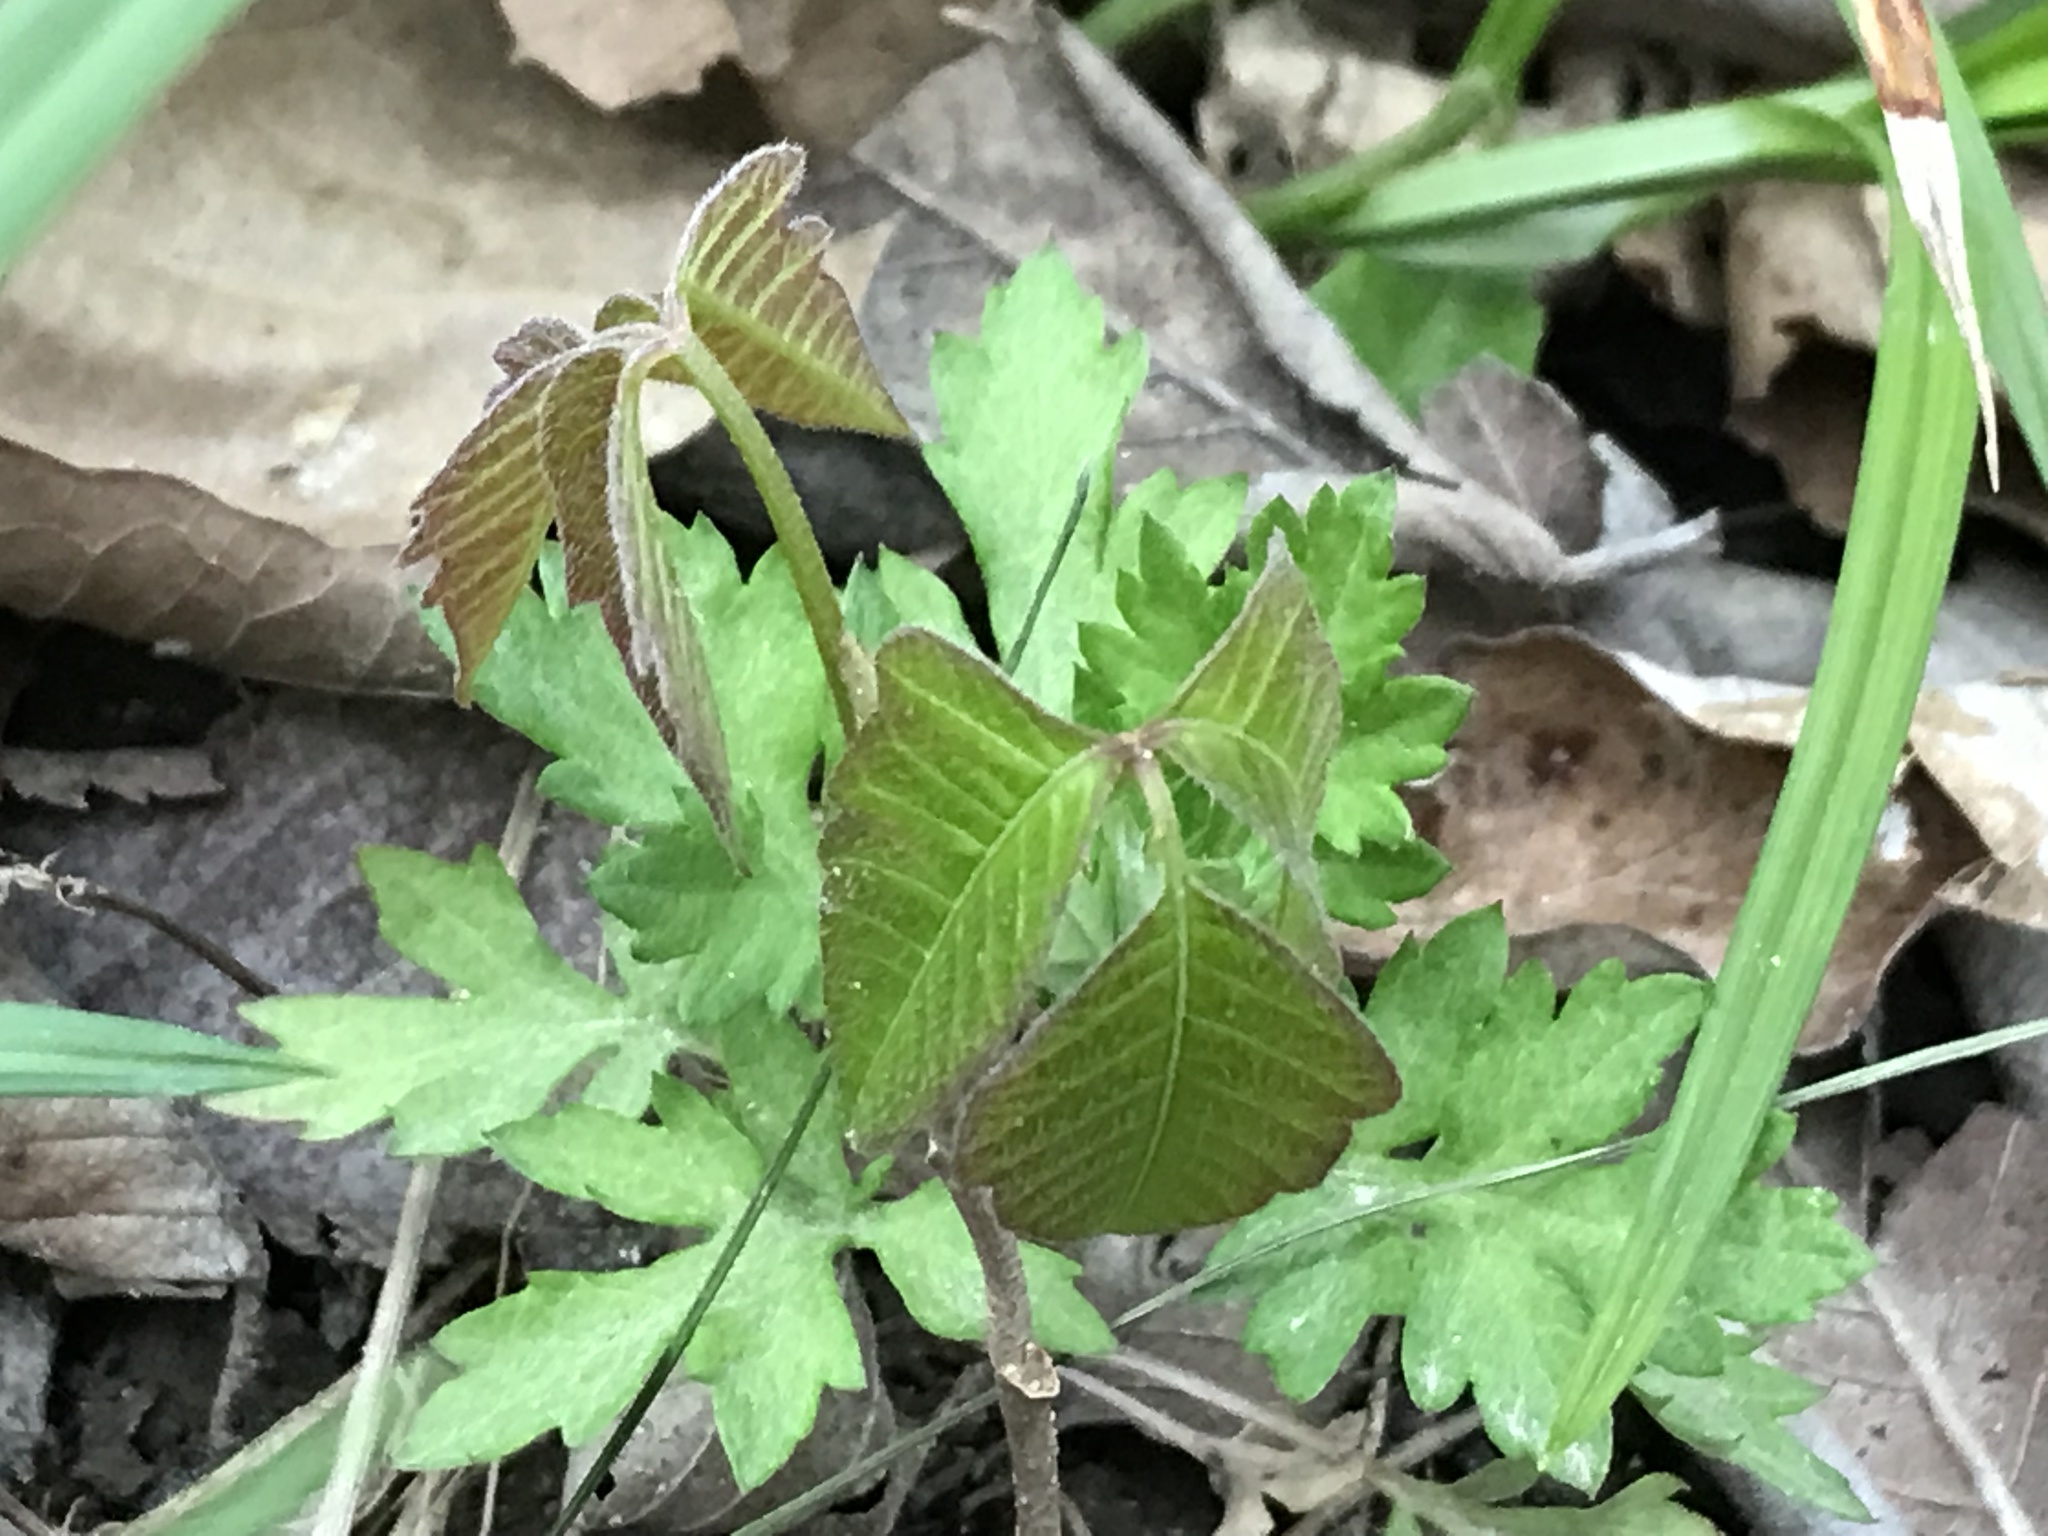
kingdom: Plantae
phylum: Tracheophyta
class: Magnoliopsida
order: Sapindales
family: Anacardiaceae
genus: Toxicodendron
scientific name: Toxicodendron radicans
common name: Poison ivy
